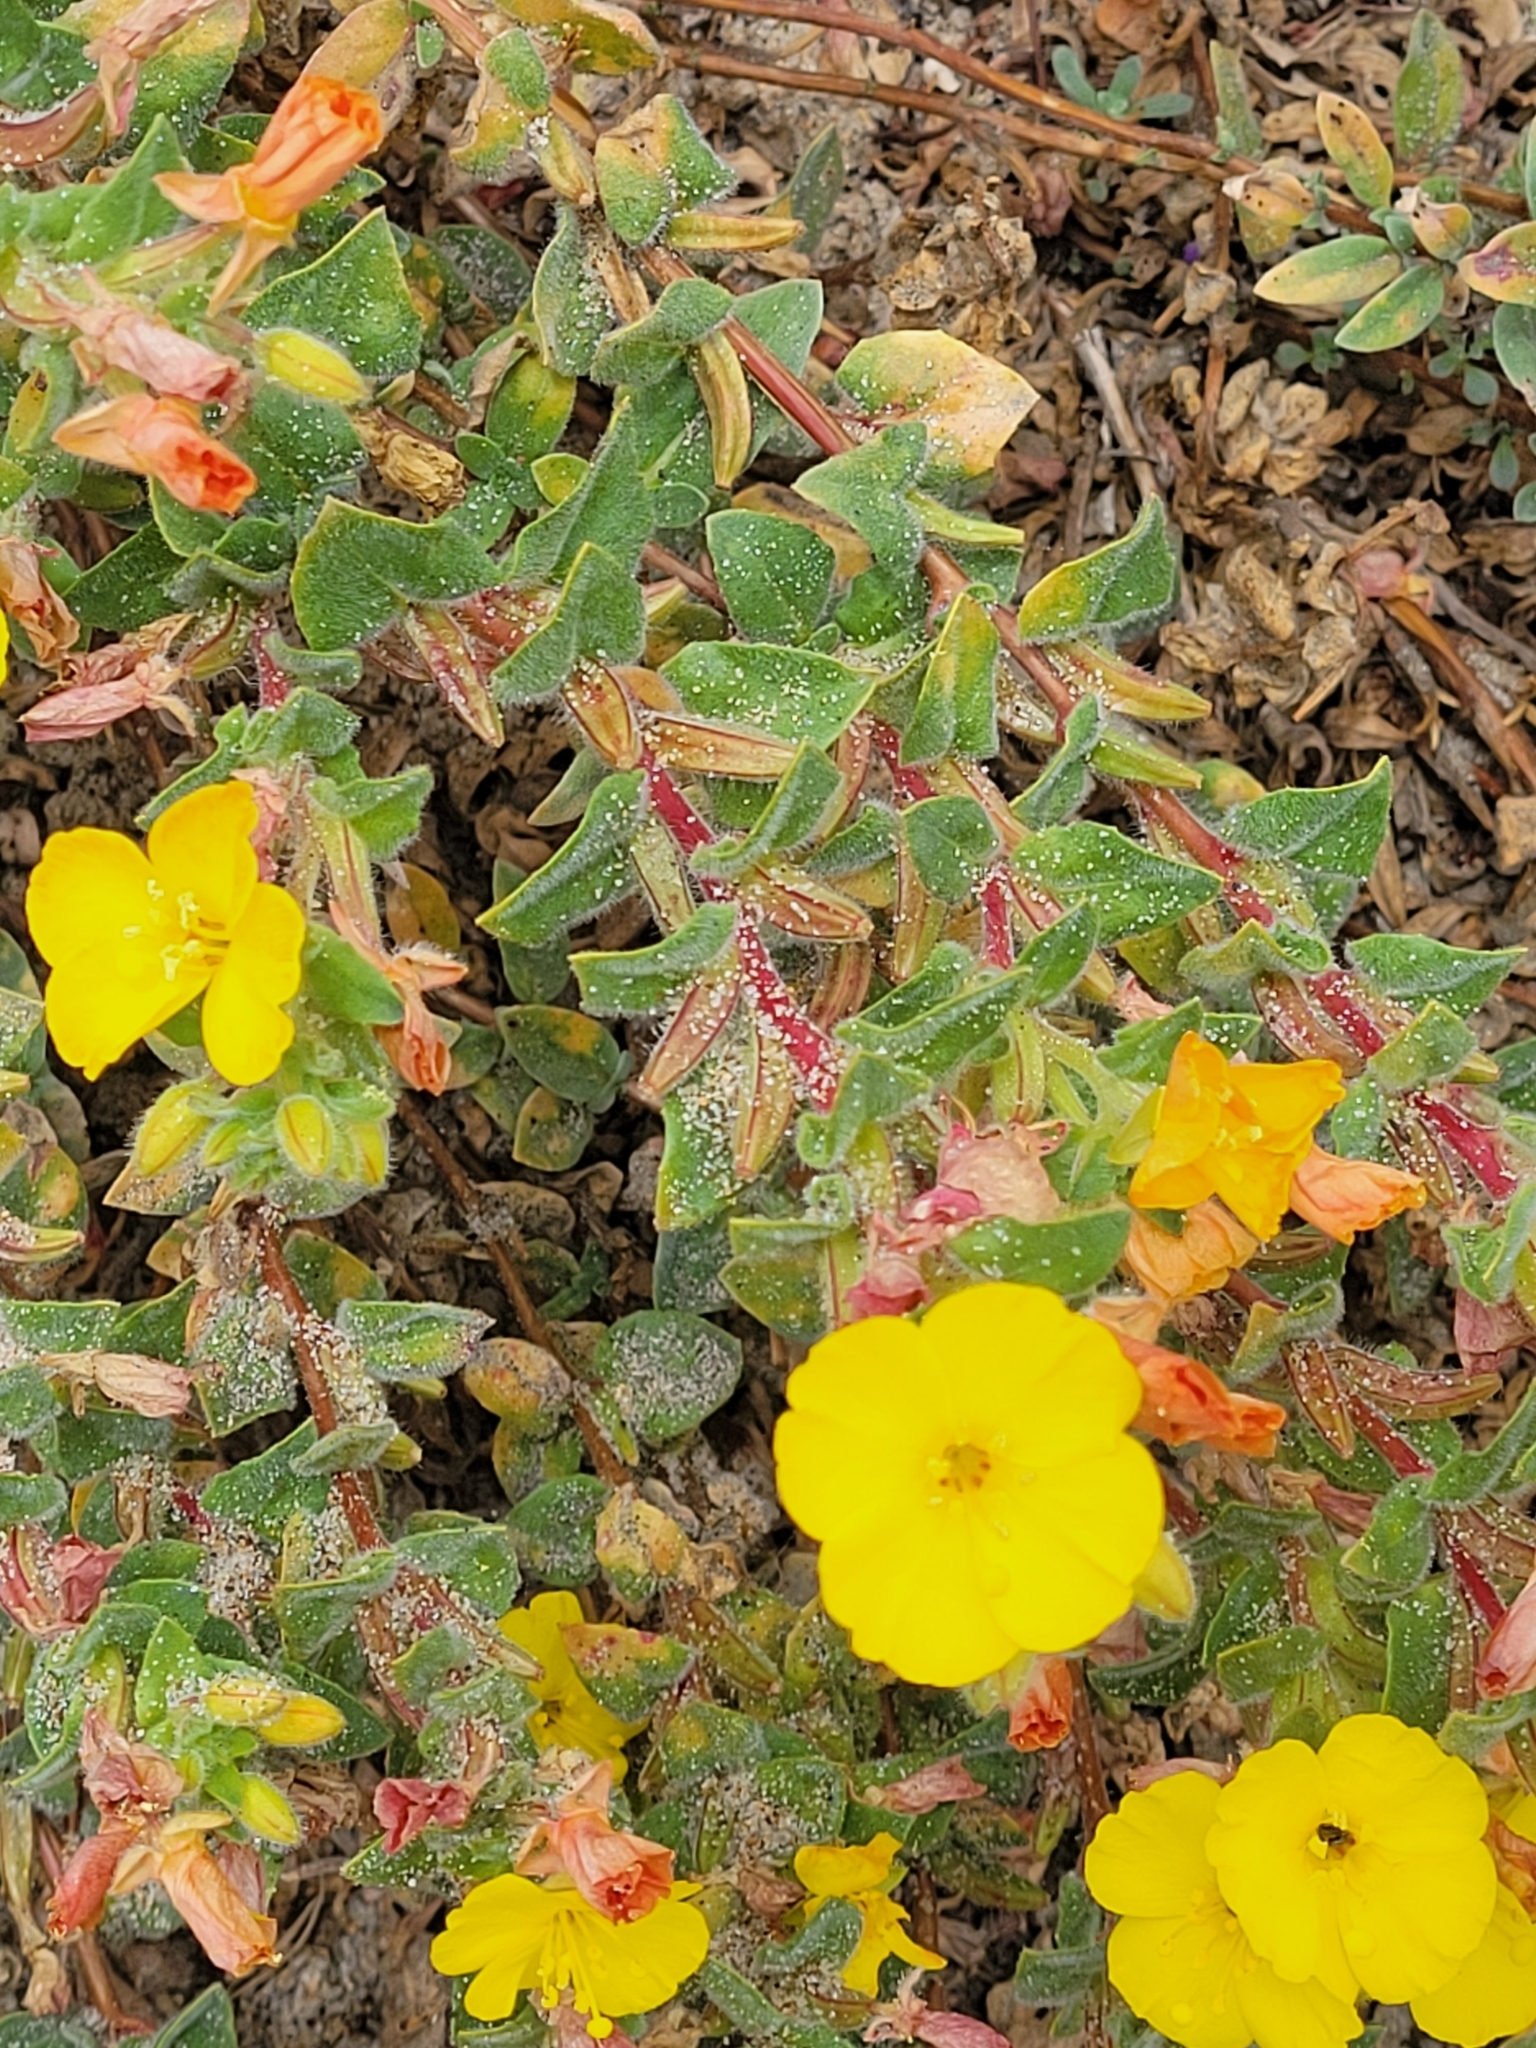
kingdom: Plantae
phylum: Tracheophyta
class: Magnoliopsida
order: Myrtales
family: Onagraceae
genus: Camissoniopsis
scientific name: Camissoniopsis cheiranthifolia
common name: Beach suncup
